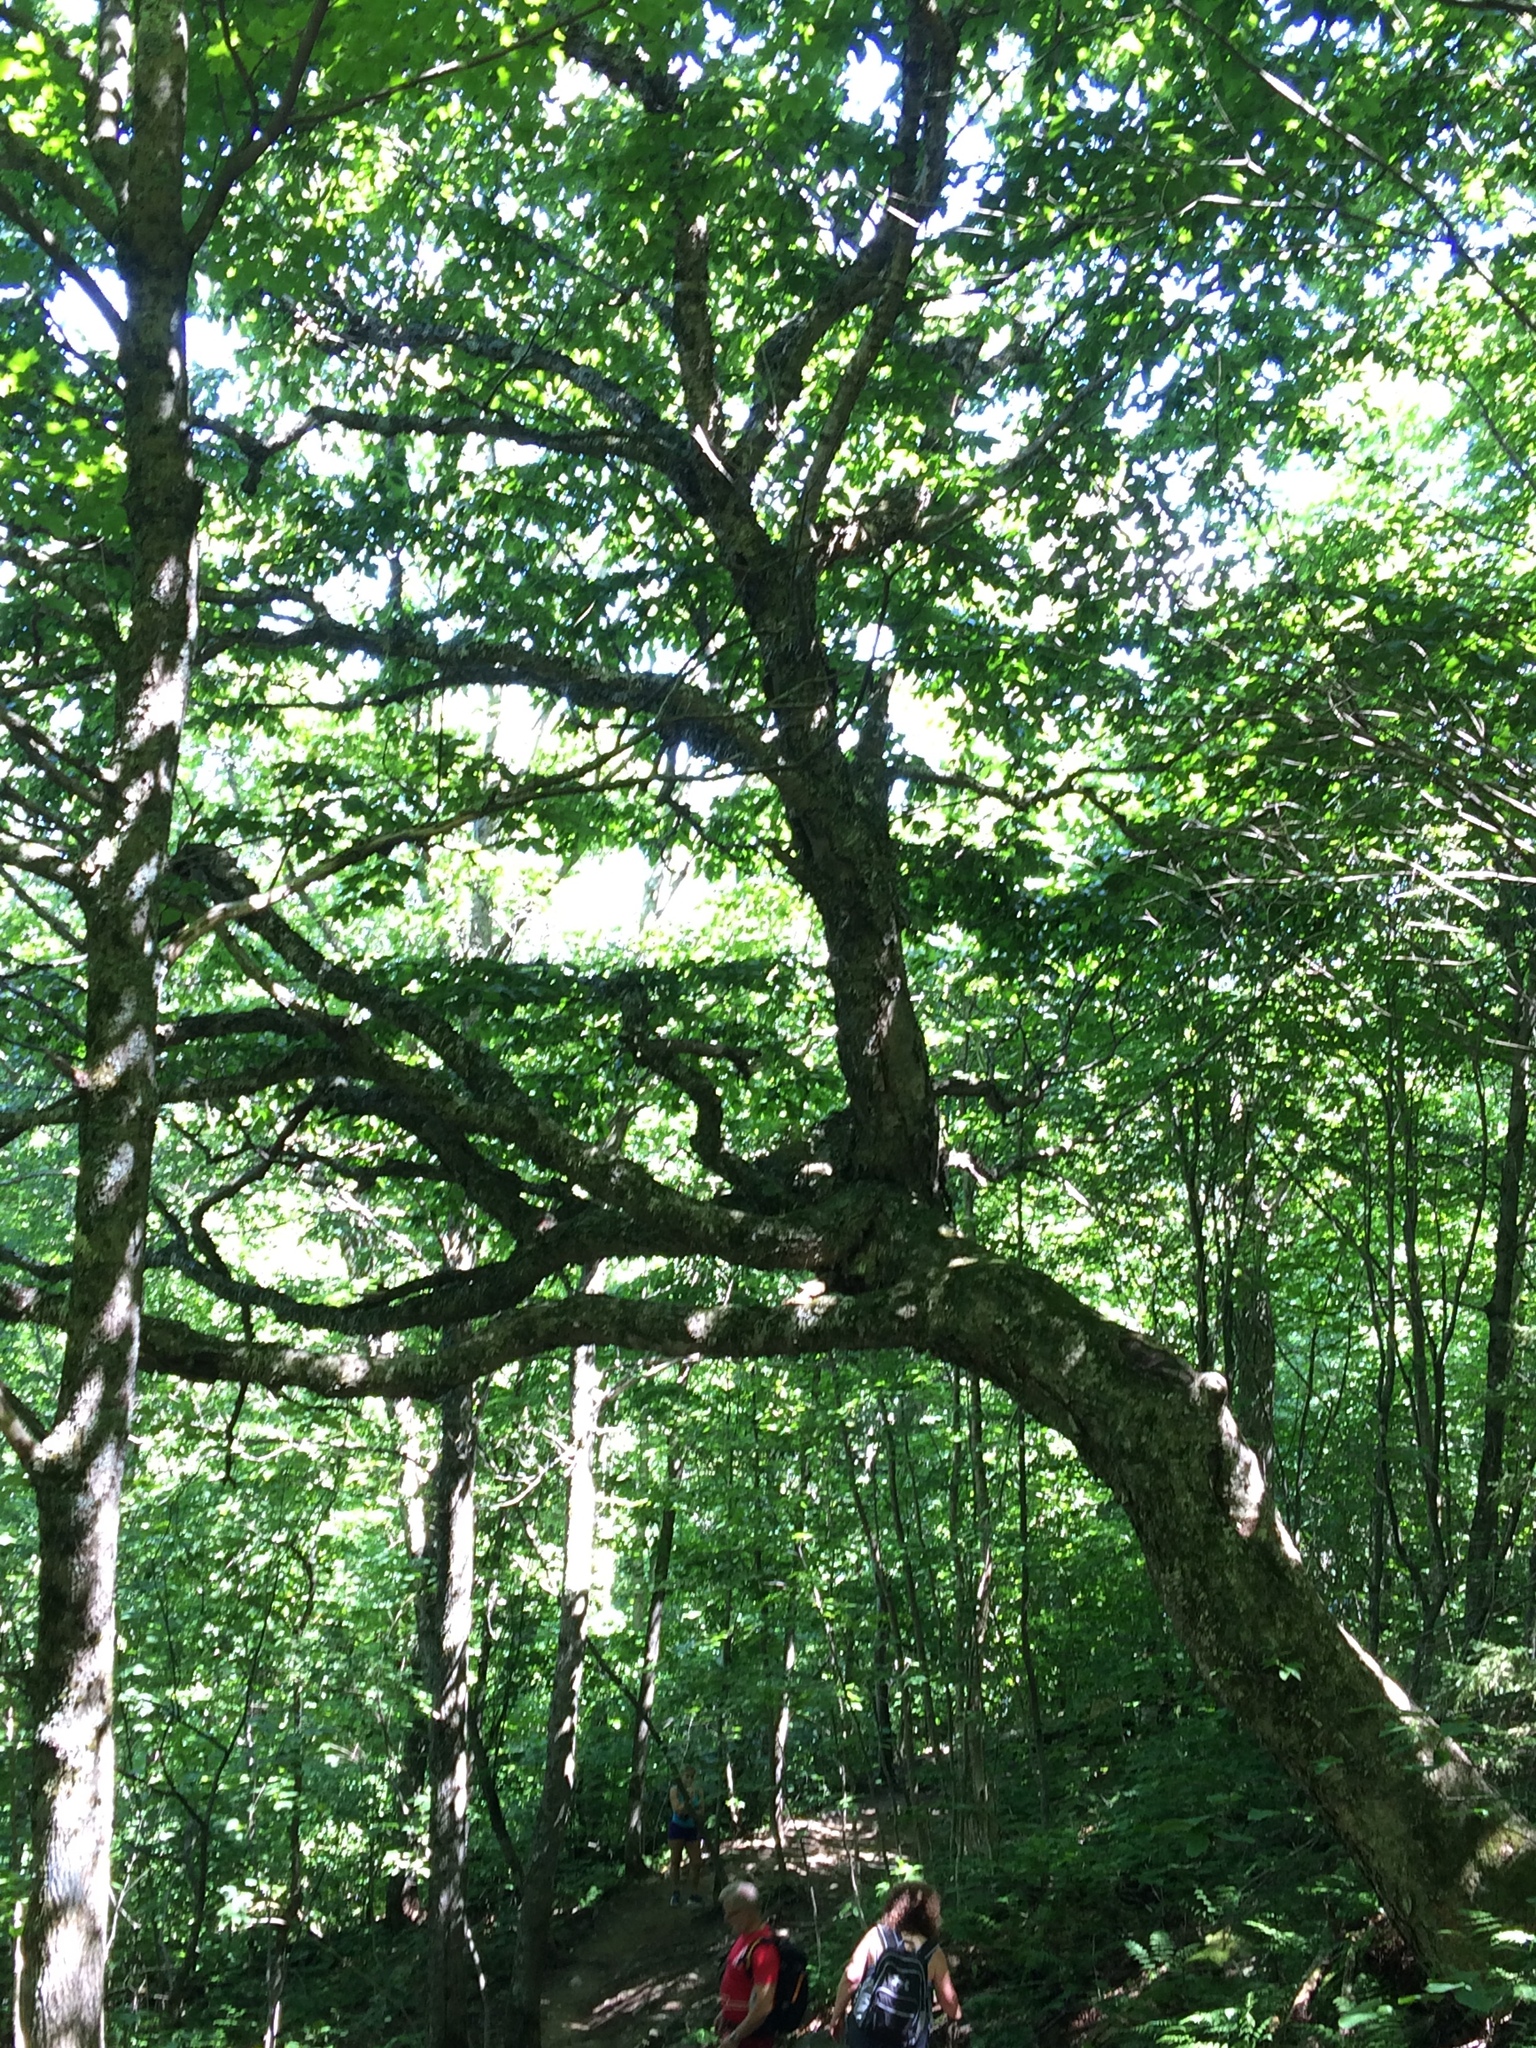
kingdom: Plantae
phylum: Tracheophyta
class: Magnoliopsida
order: Fagales
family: Betulaceae
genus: Betula
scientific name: Betula alleghaniensis
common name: Yellow birch
